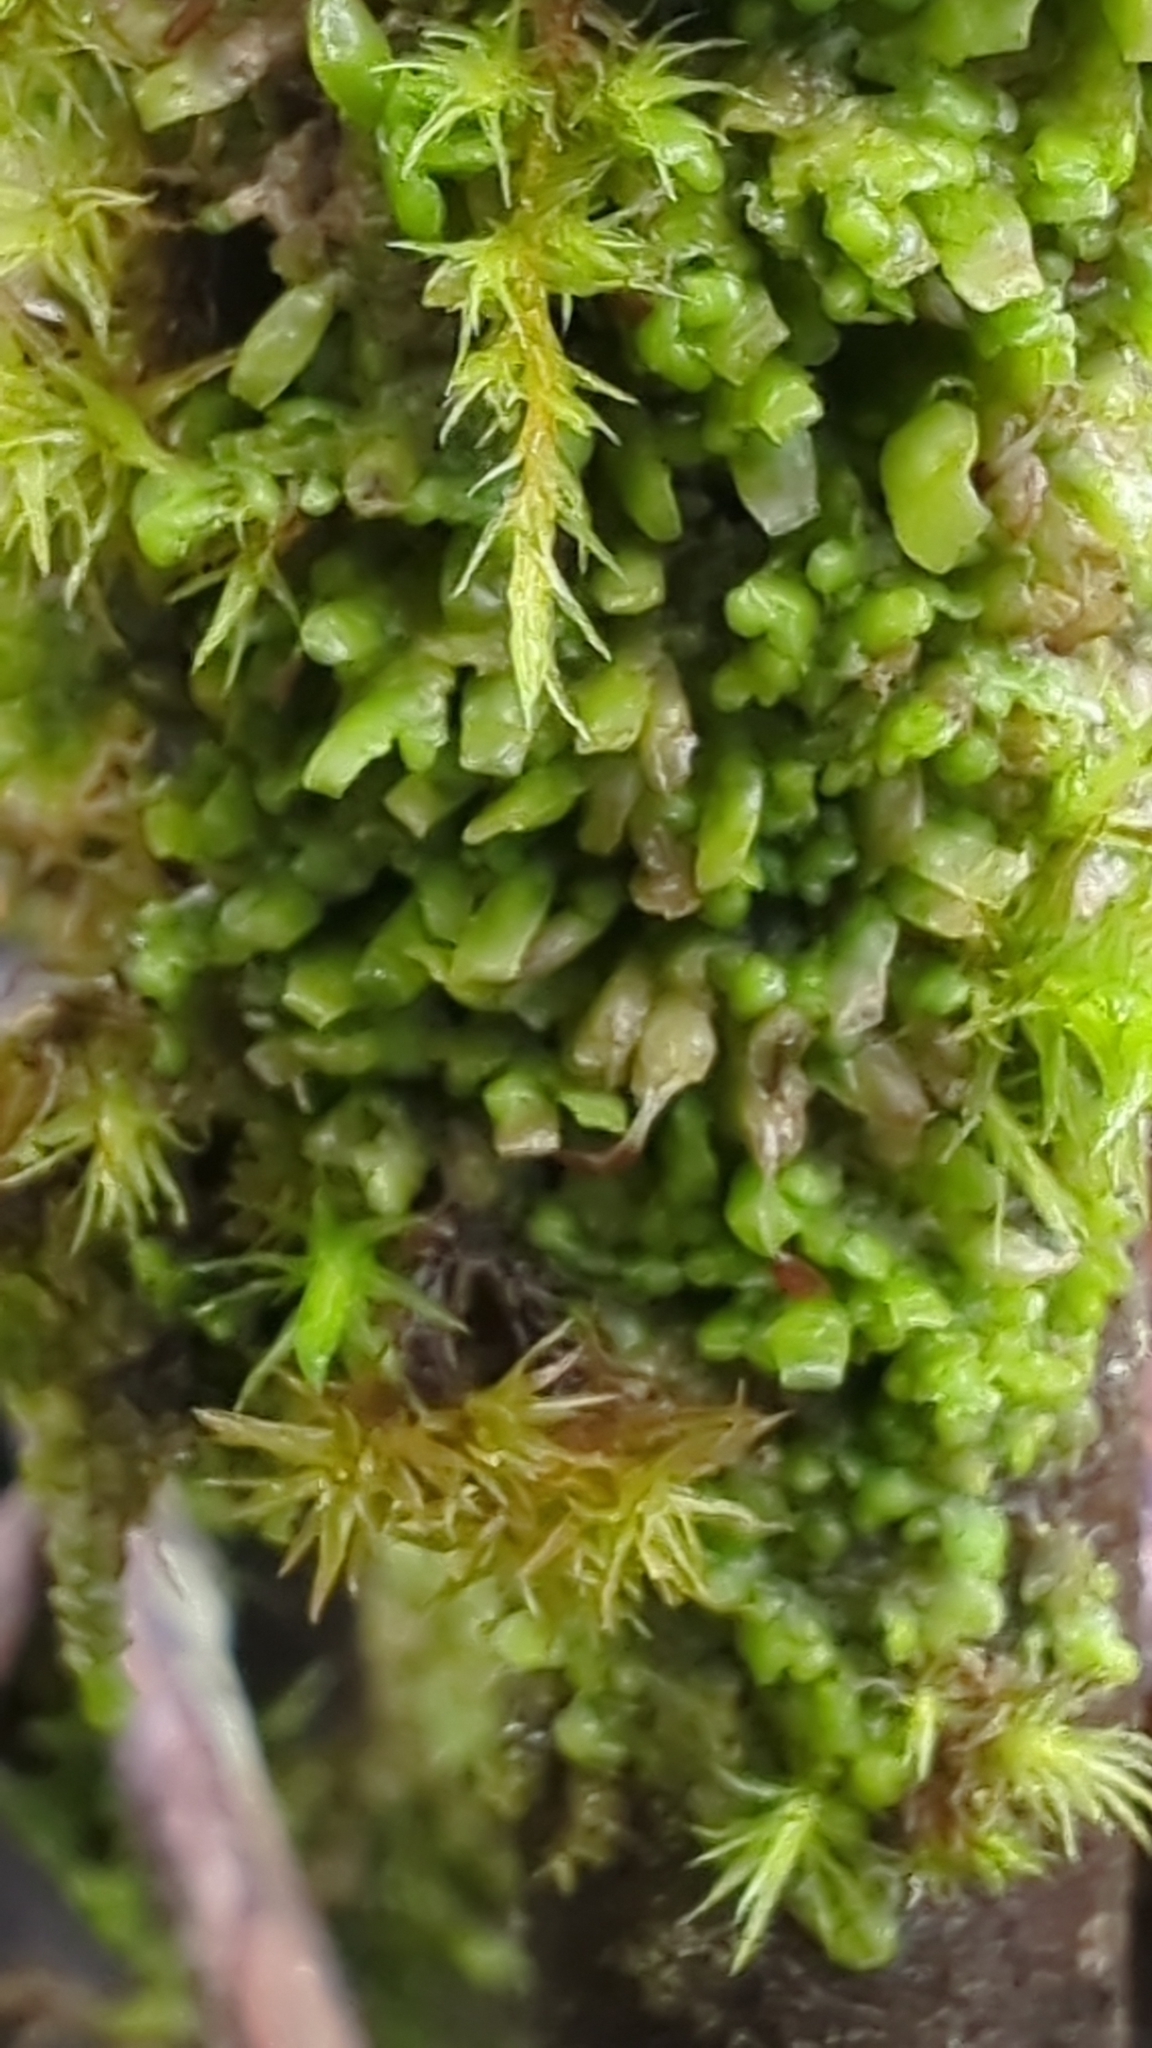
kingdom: Plantae
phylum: Marchantiophyta
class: Jungermanniopsida
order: Porellales
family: Radulaceae
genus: Radula
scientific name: Radula complanata
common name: Flat-leaved scalewort
